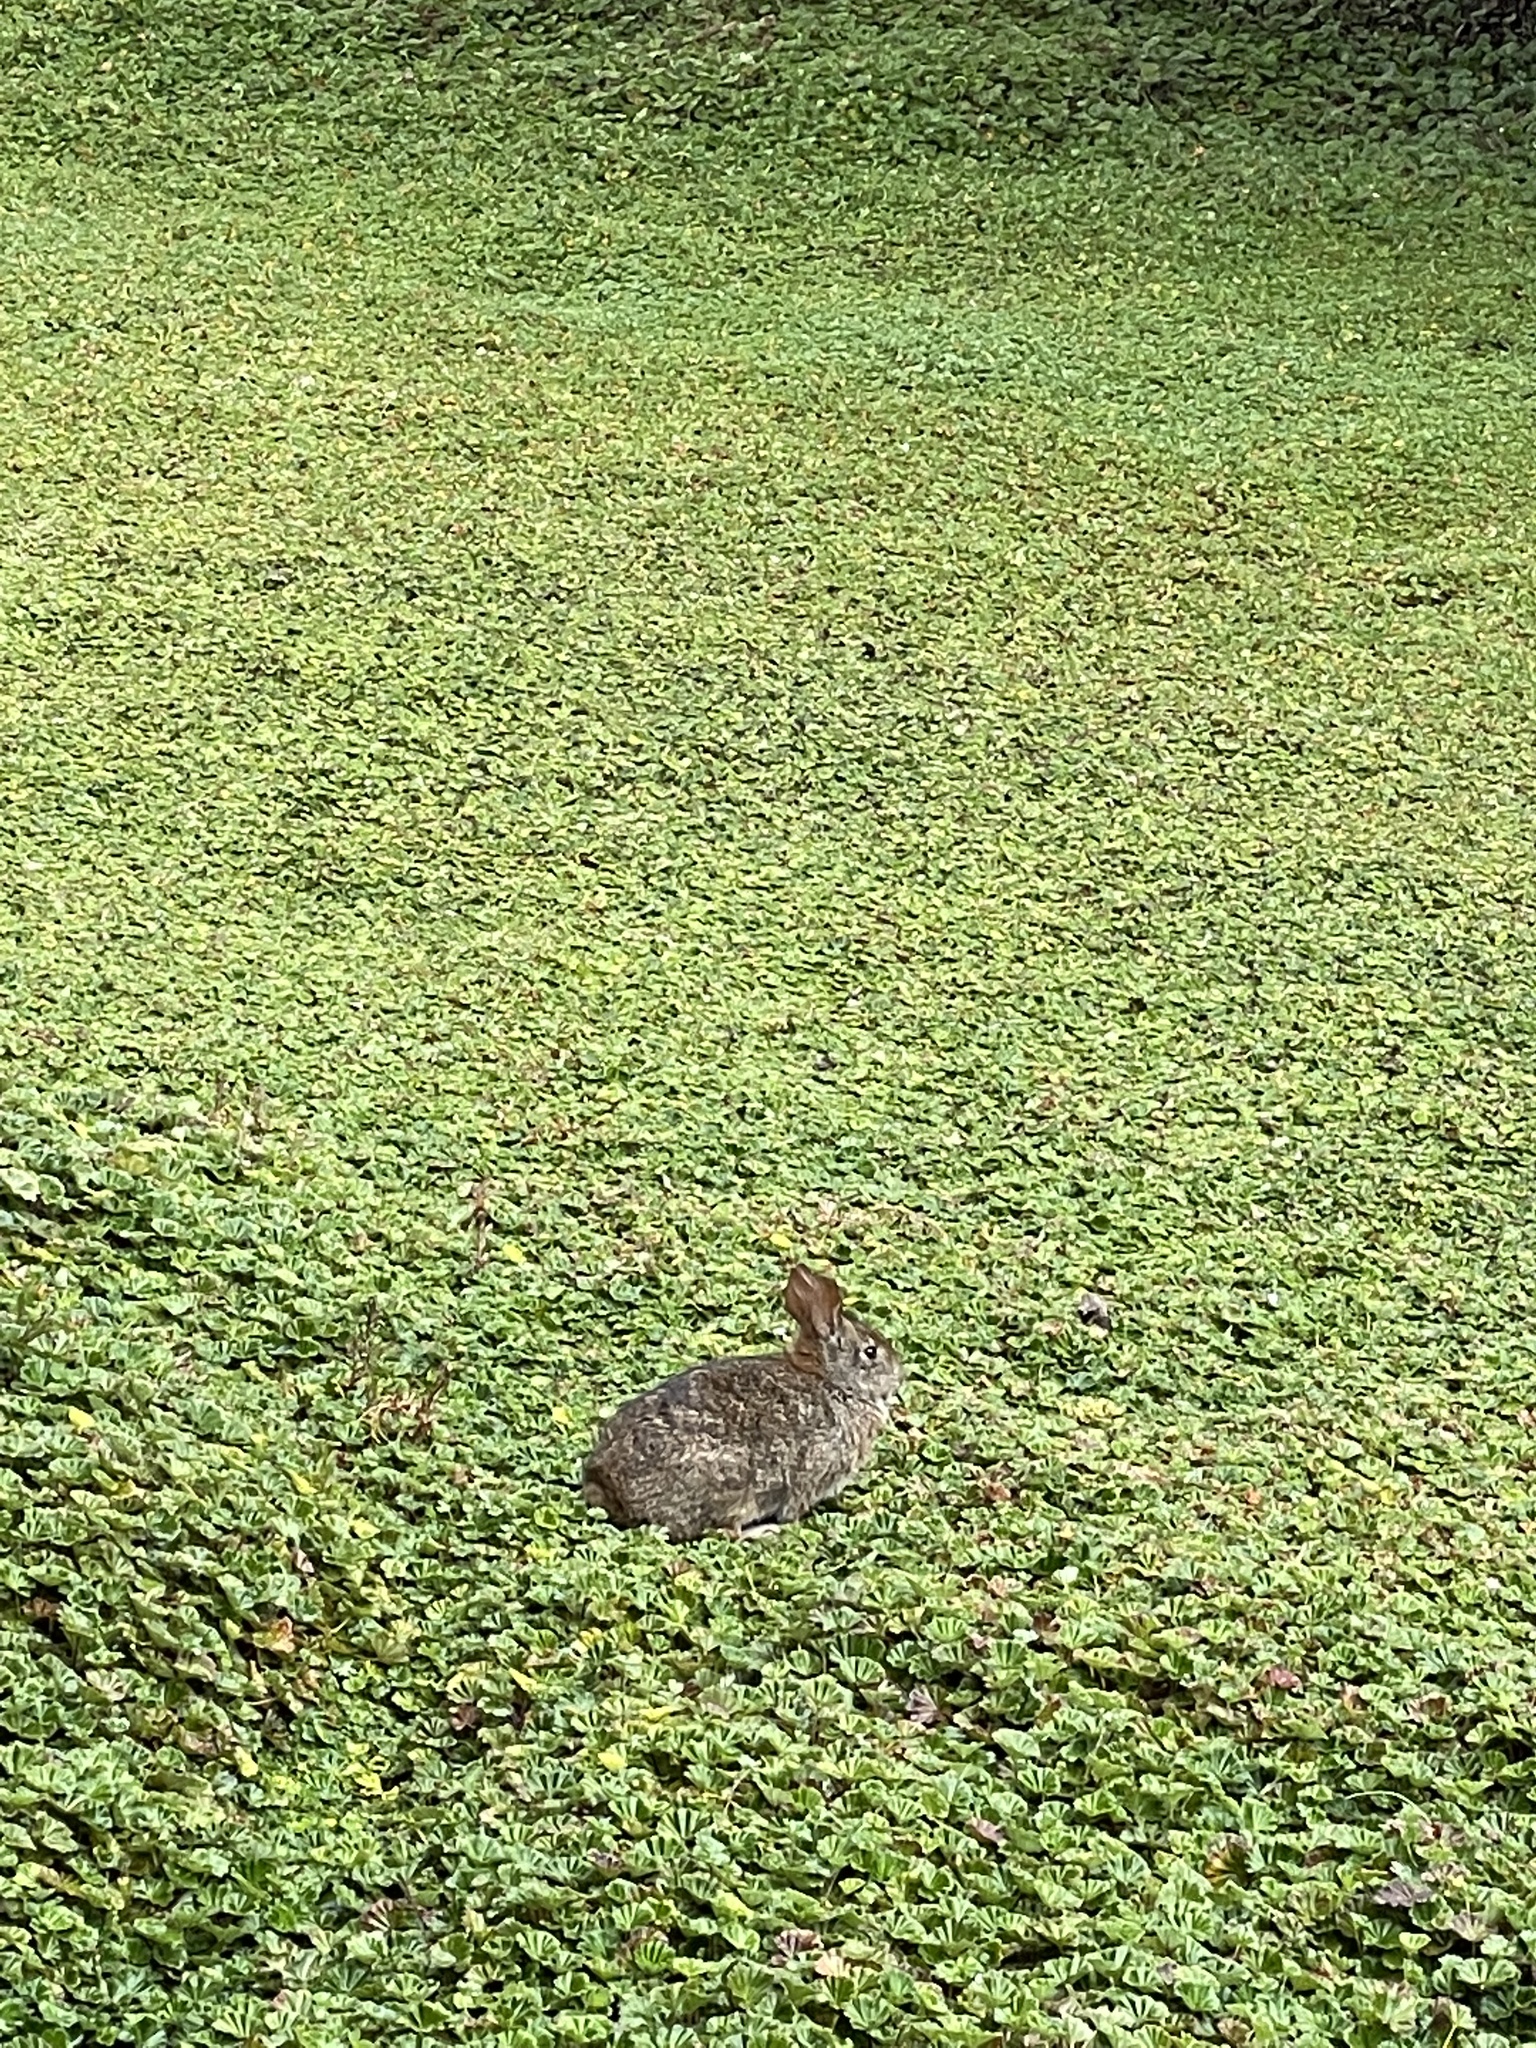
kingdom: Animalia
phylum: Chordata
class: Mammalia
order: Lagomorpha
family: Leporidae
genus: Sylvilagus
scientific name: Sylvilagus andinus
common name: Andean cottontail
